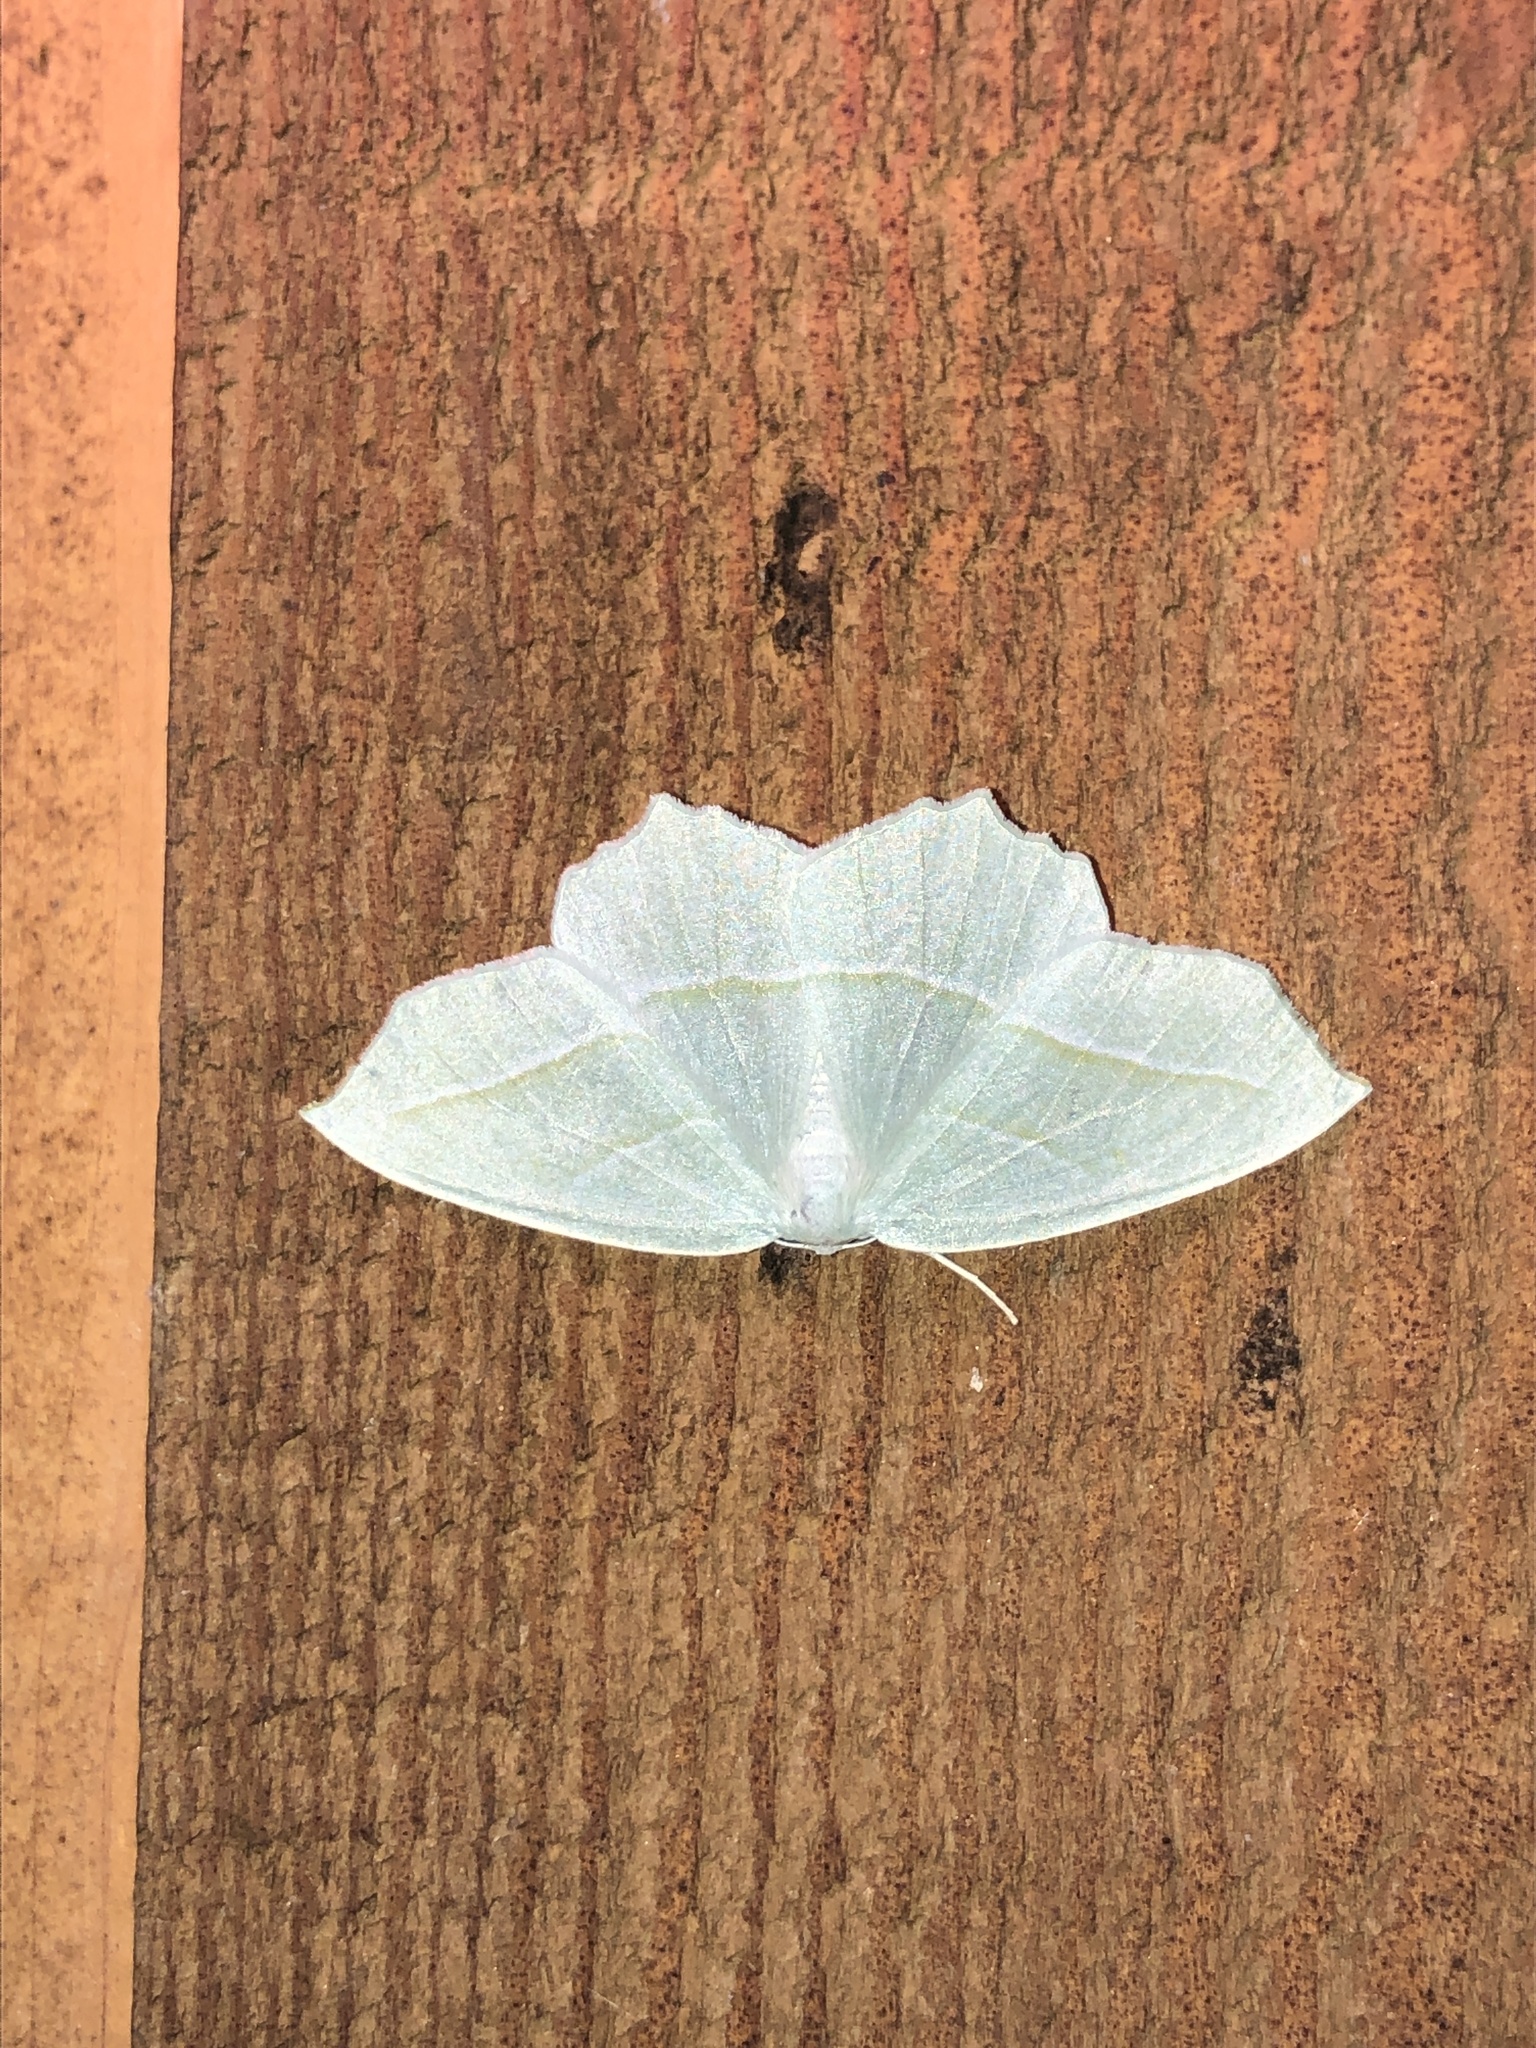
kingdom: Animalia
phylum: Arthropoda
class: Insecta
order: Lepidoptera
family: Geometridae
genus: Campaea
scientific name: Campaea perlata
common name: Fringed looper
